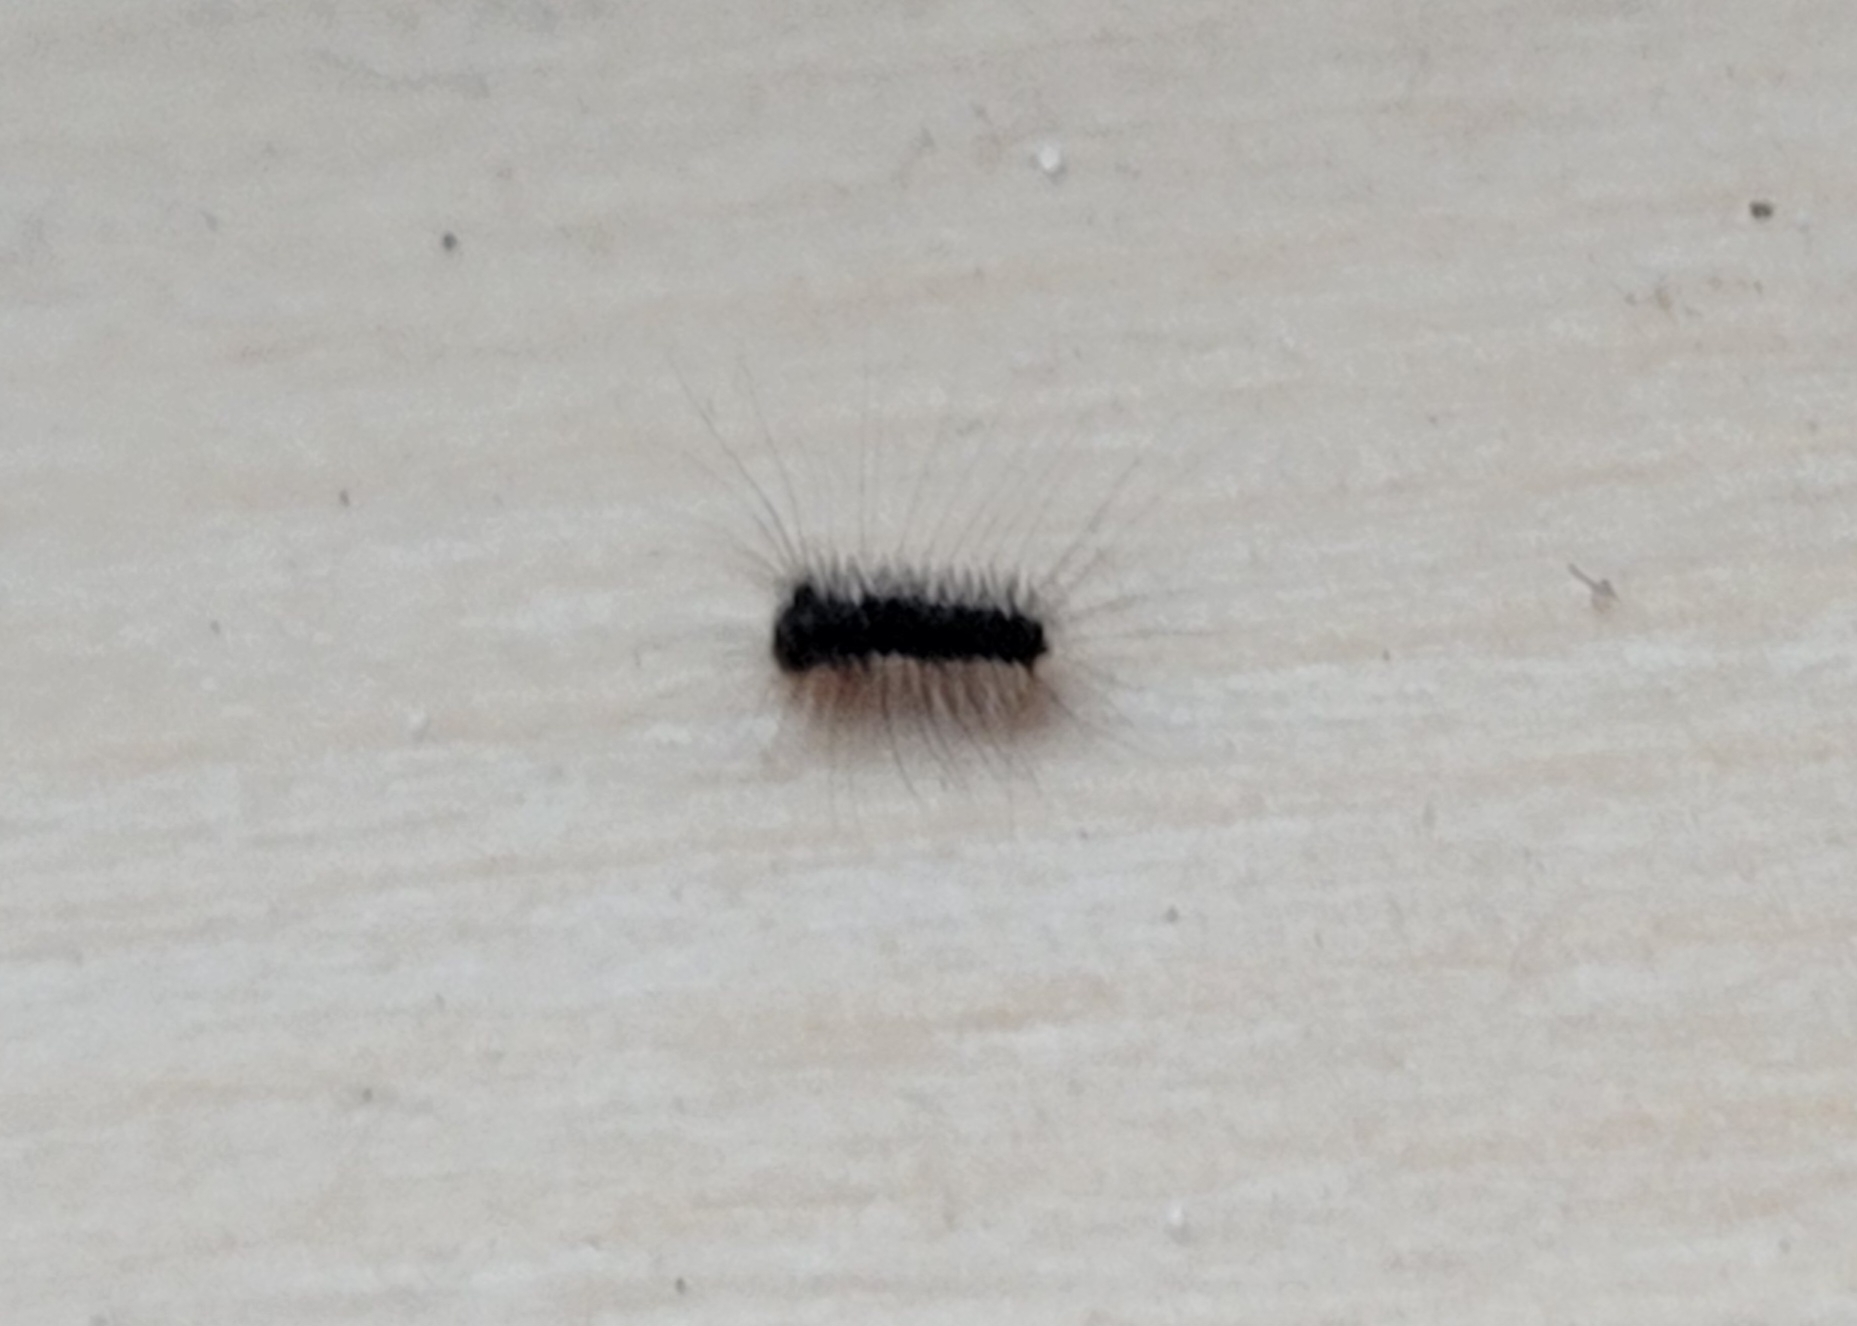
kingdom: Animalia
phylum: Arthropoda
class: Insecta
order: Lepidoptera
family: Erebidae
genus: Lymantria
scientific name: Lymantria dispar
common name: Gypsy moth
